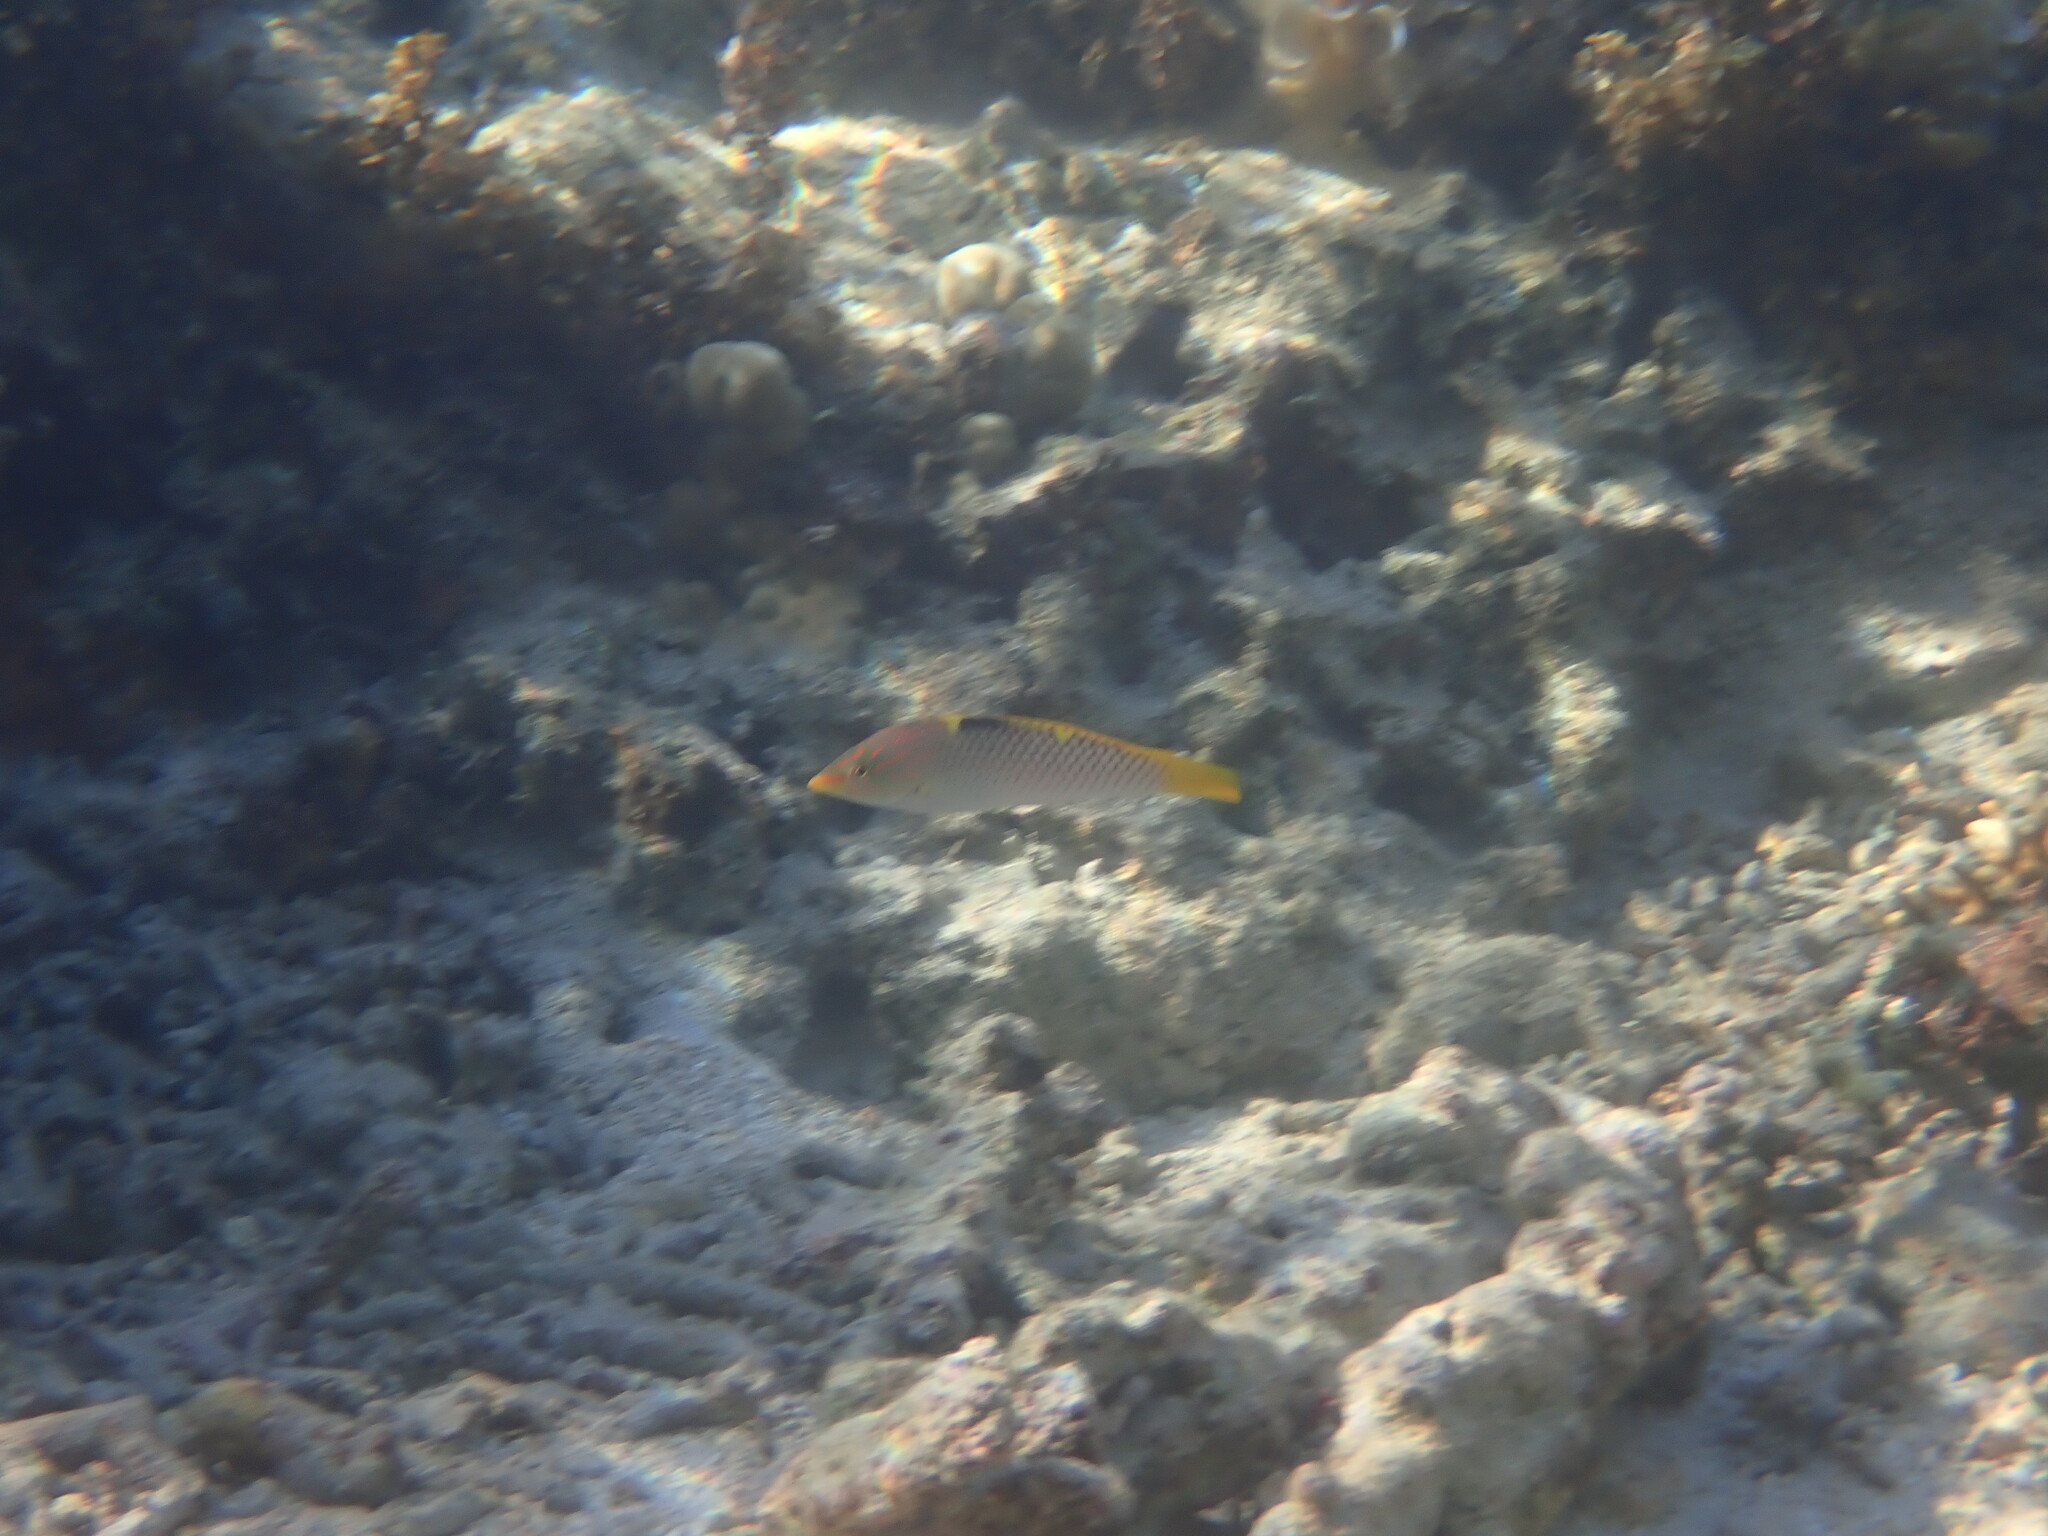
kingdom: Animalia
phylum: Chordata
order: Perciformes
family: Labridae
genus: Halichoeres
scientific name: Halichoeres hortulanus
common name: Checkerboard wrasse
